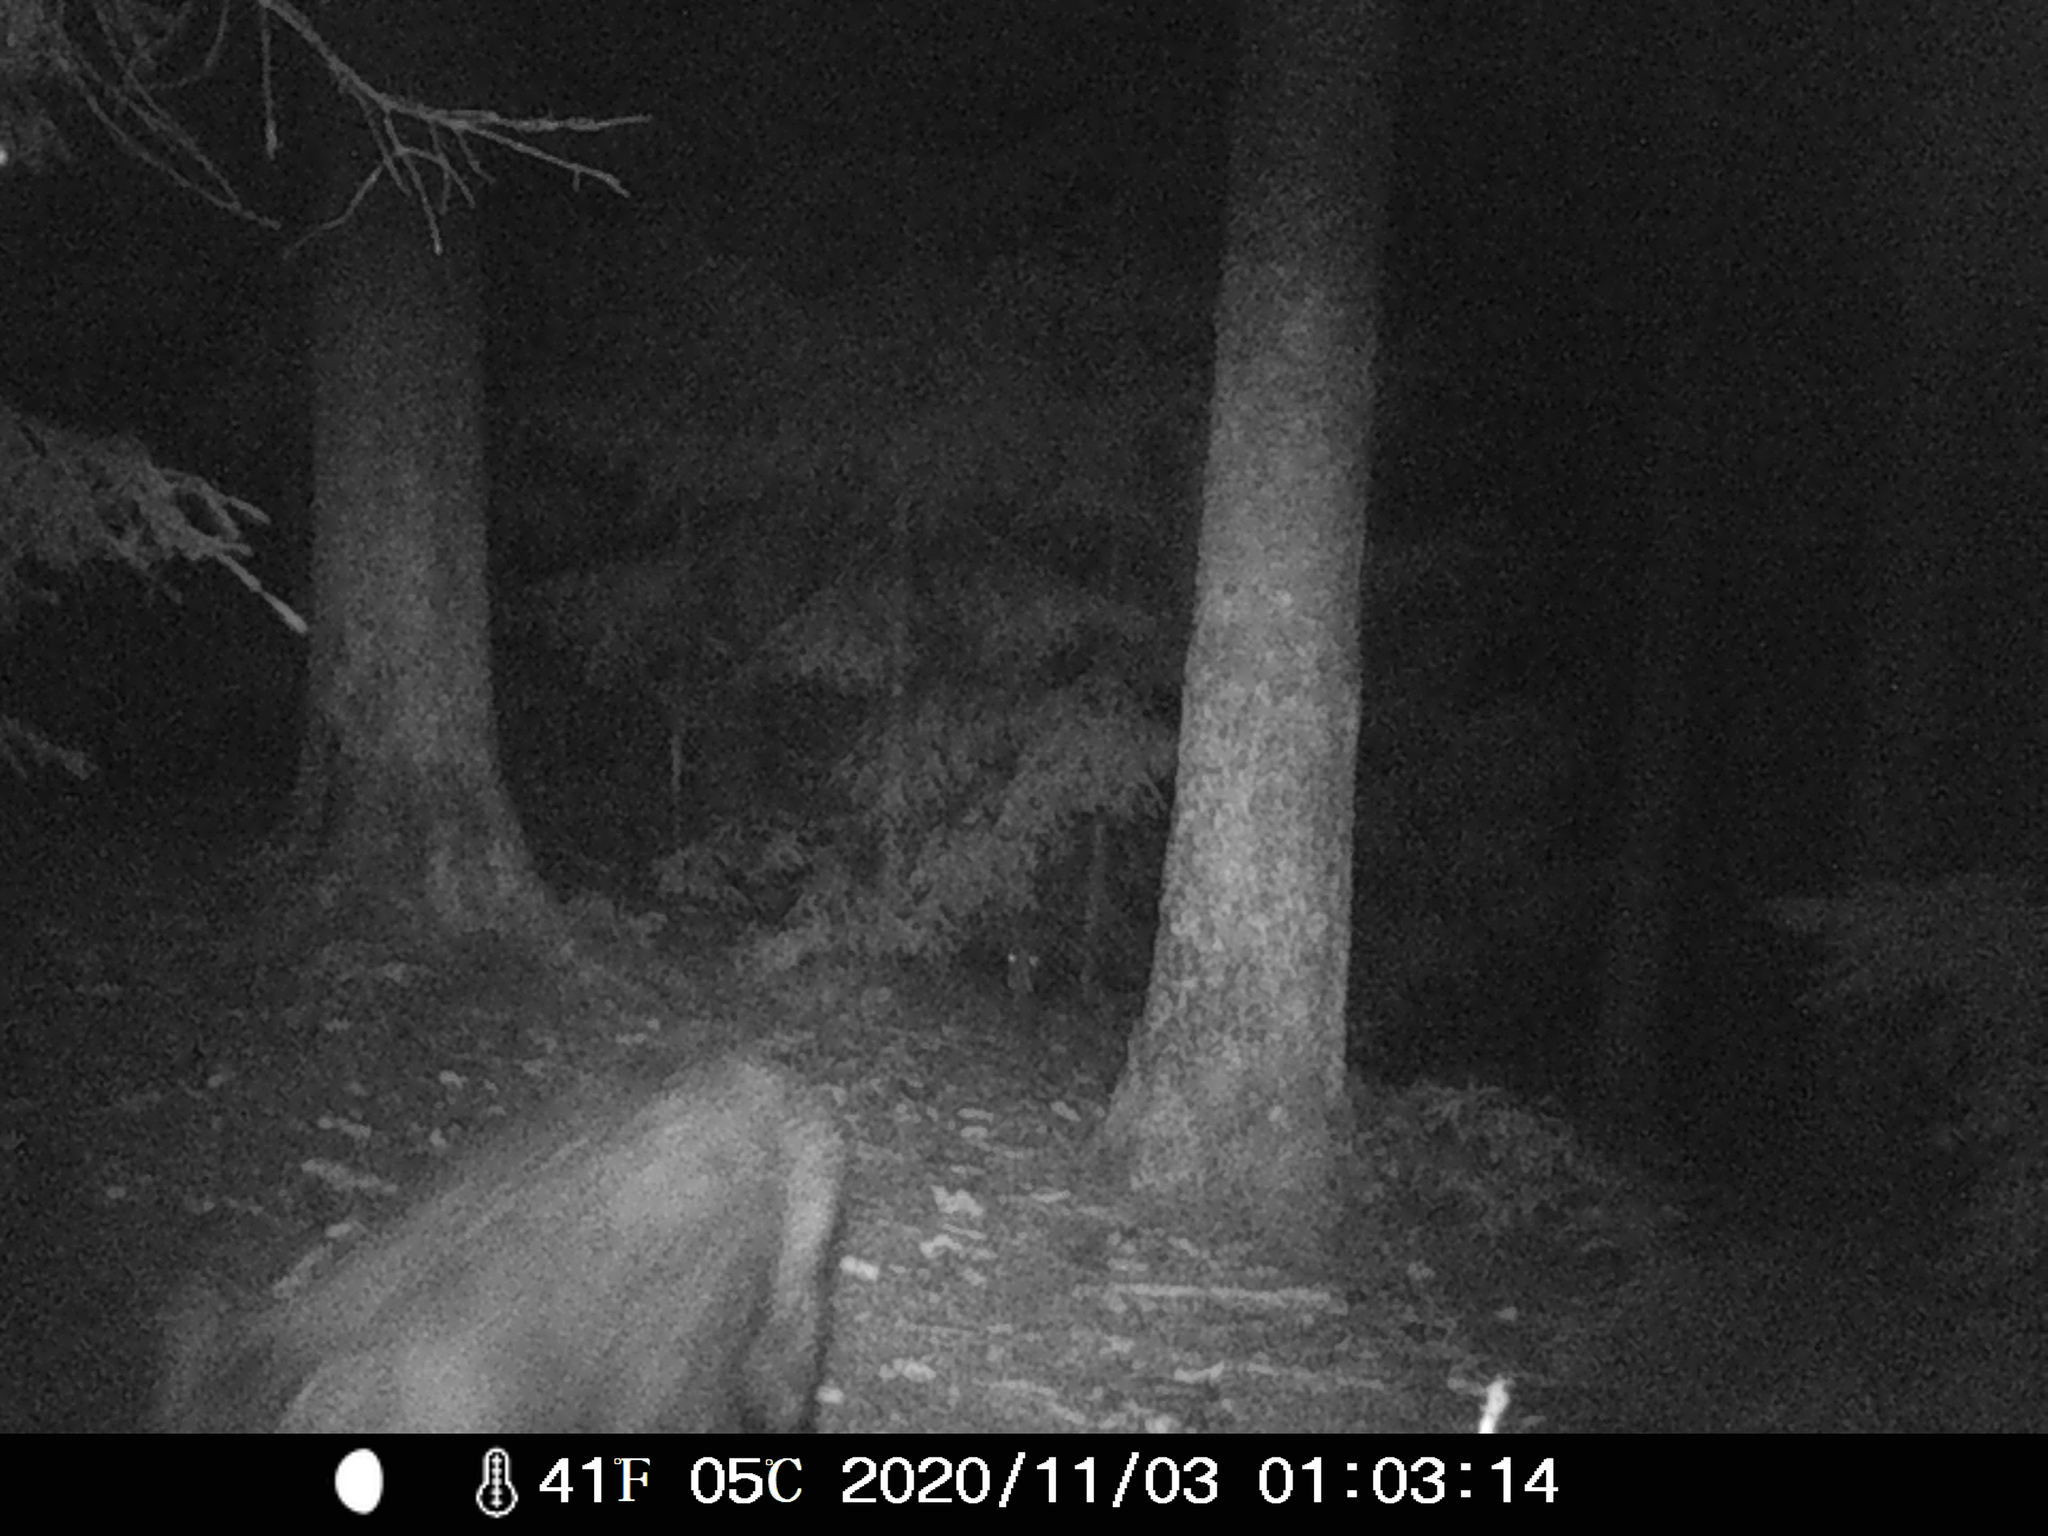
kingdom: Animalia
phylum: Chordata
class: Mammalia
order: Artiodactyla
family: Suidae
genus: Sus
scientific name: Sus scrofa
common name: Wild boar
